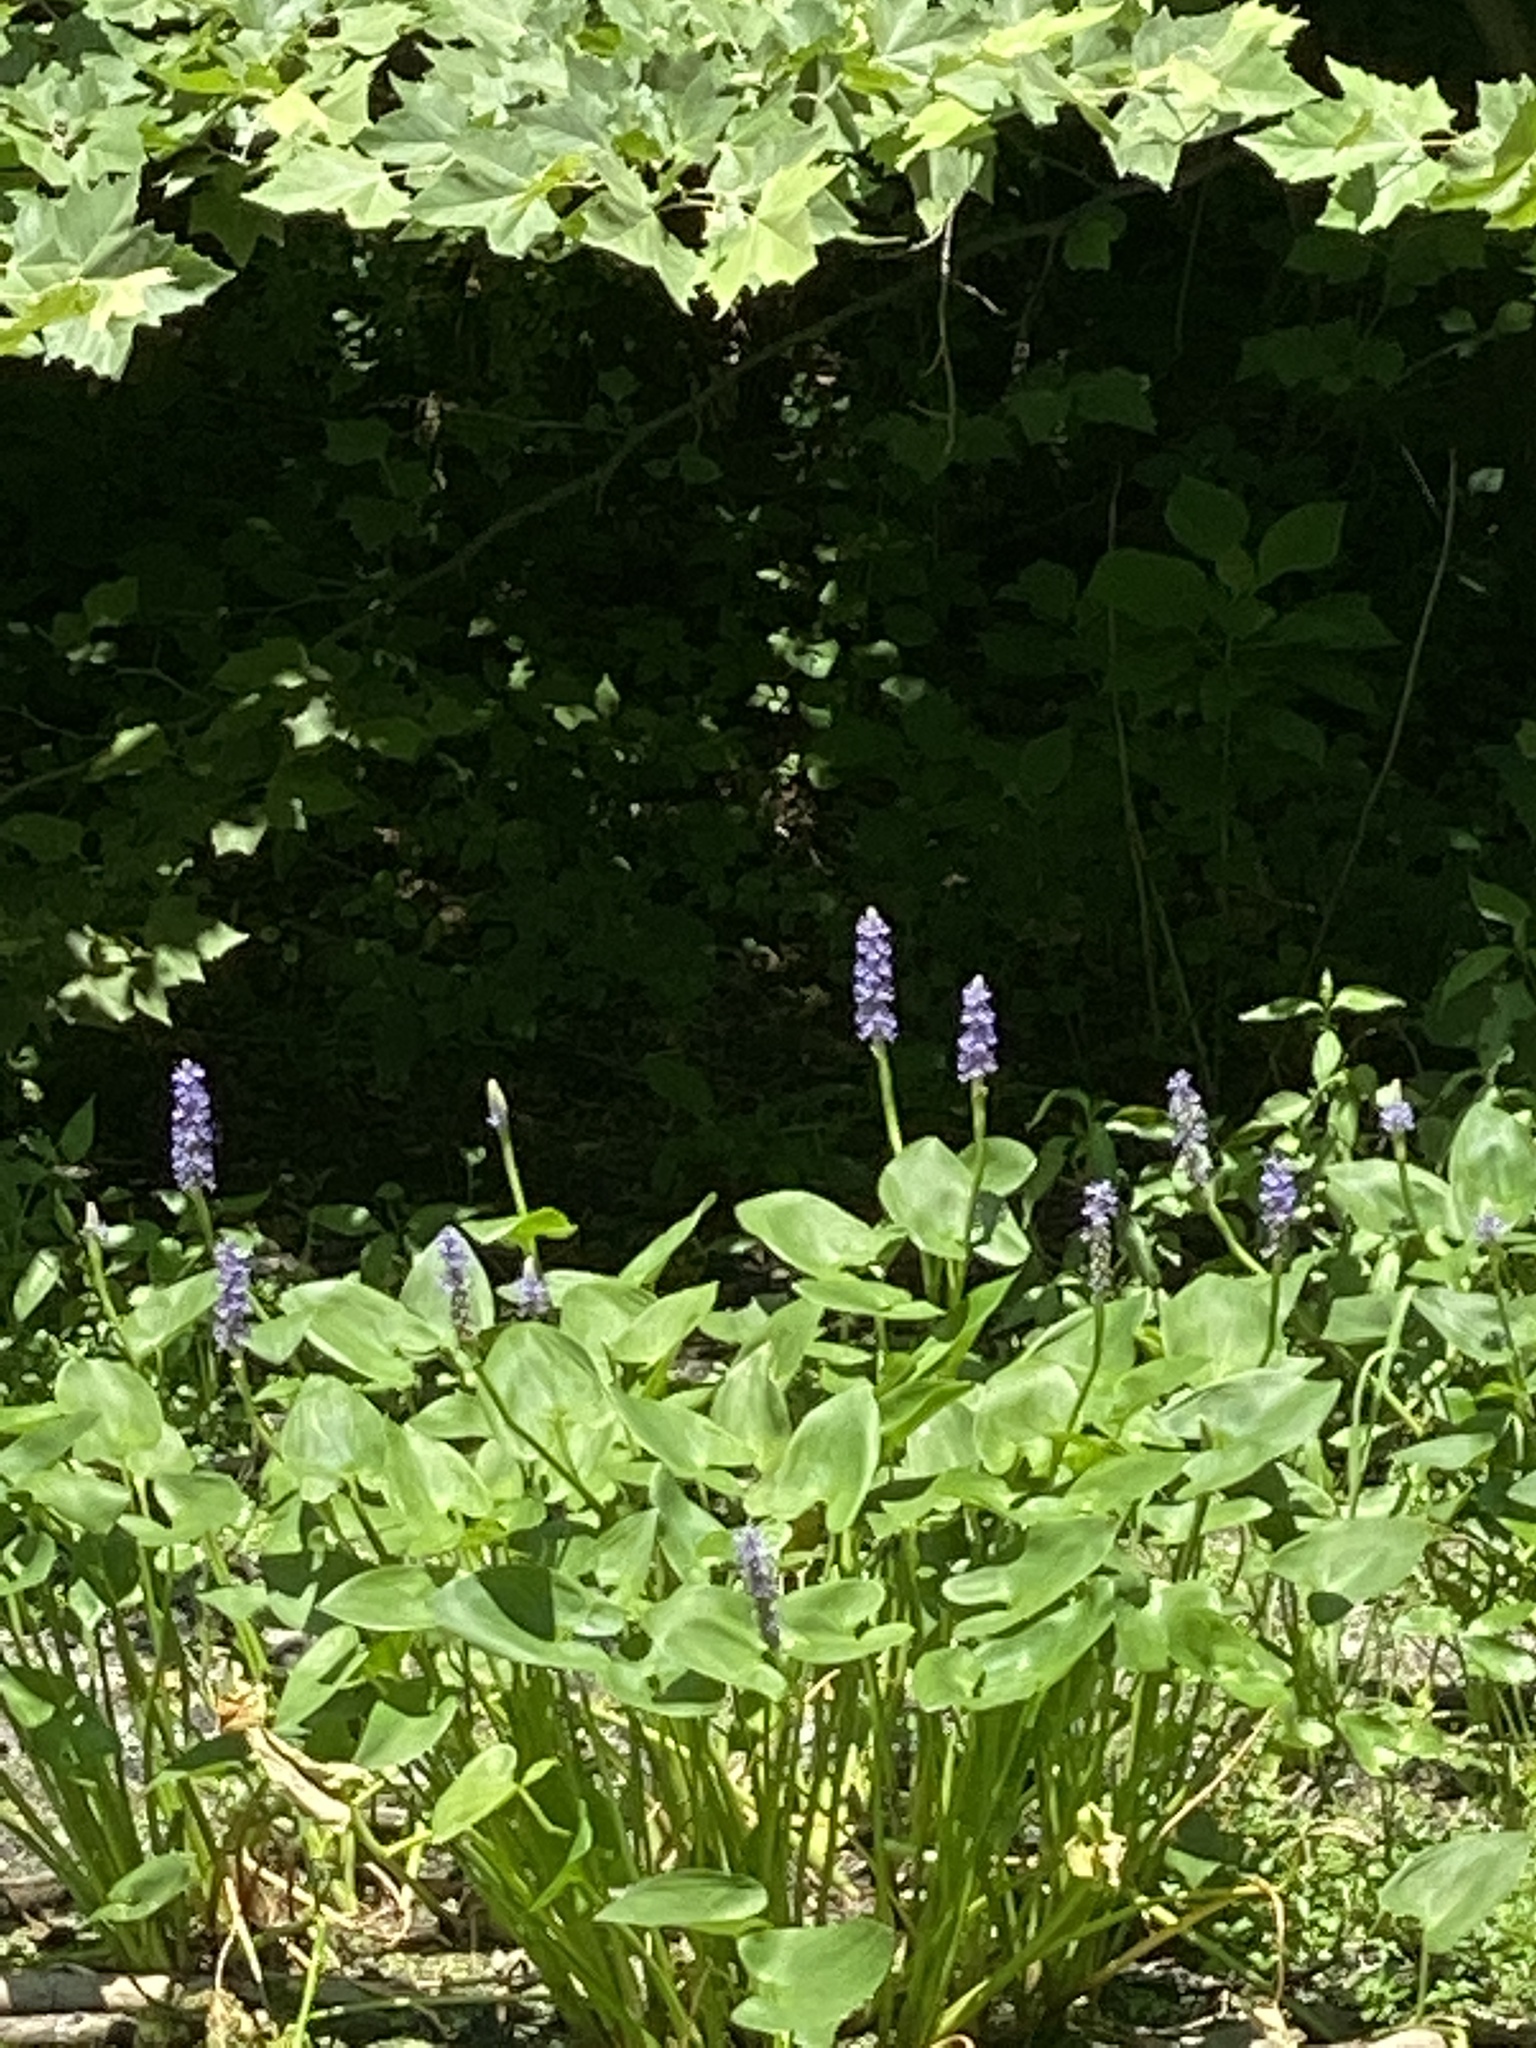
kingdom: Plantae
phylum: Tracheophyta
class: Liliopsida
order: Commelinales
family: Pontederiaceae
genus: Pontederia
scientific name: Pontederia cordata
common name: Pickerelweed
